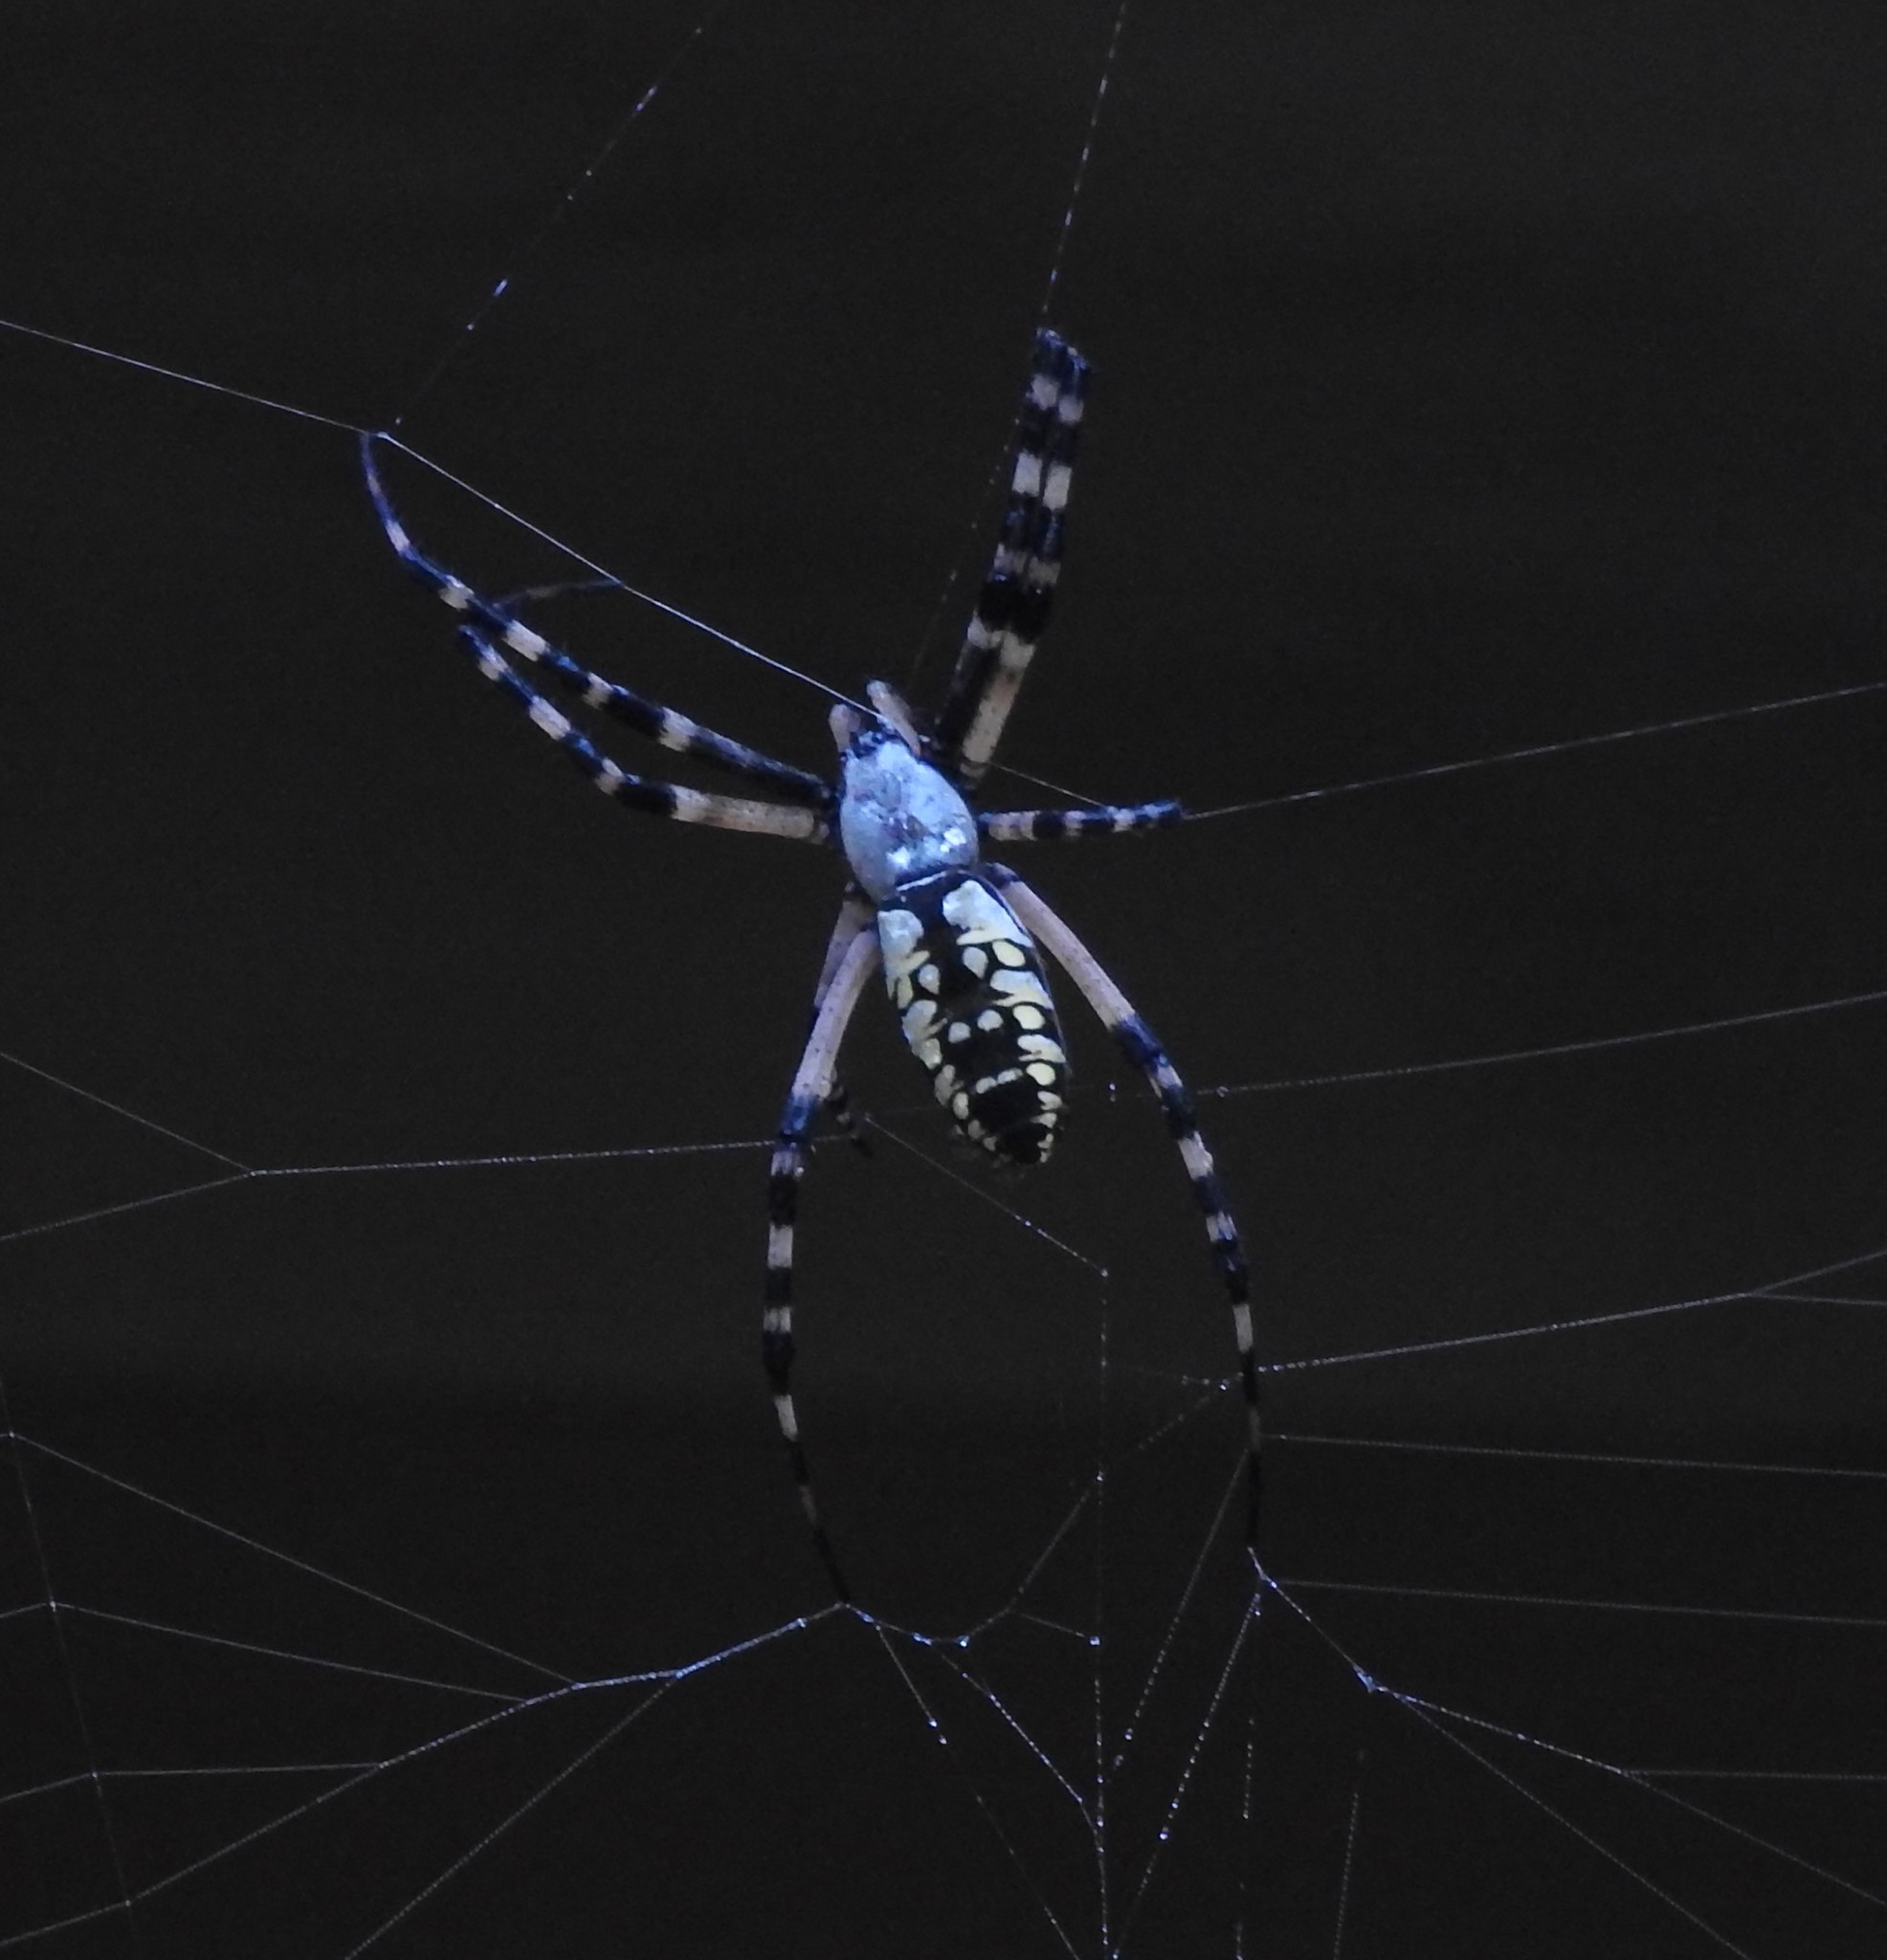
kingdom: Animalia
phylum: Arthropoda
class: Arachnida
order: Araneae
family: Araneidae
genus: Argiope
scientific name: Argiope aurantia
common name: Orb weavers
